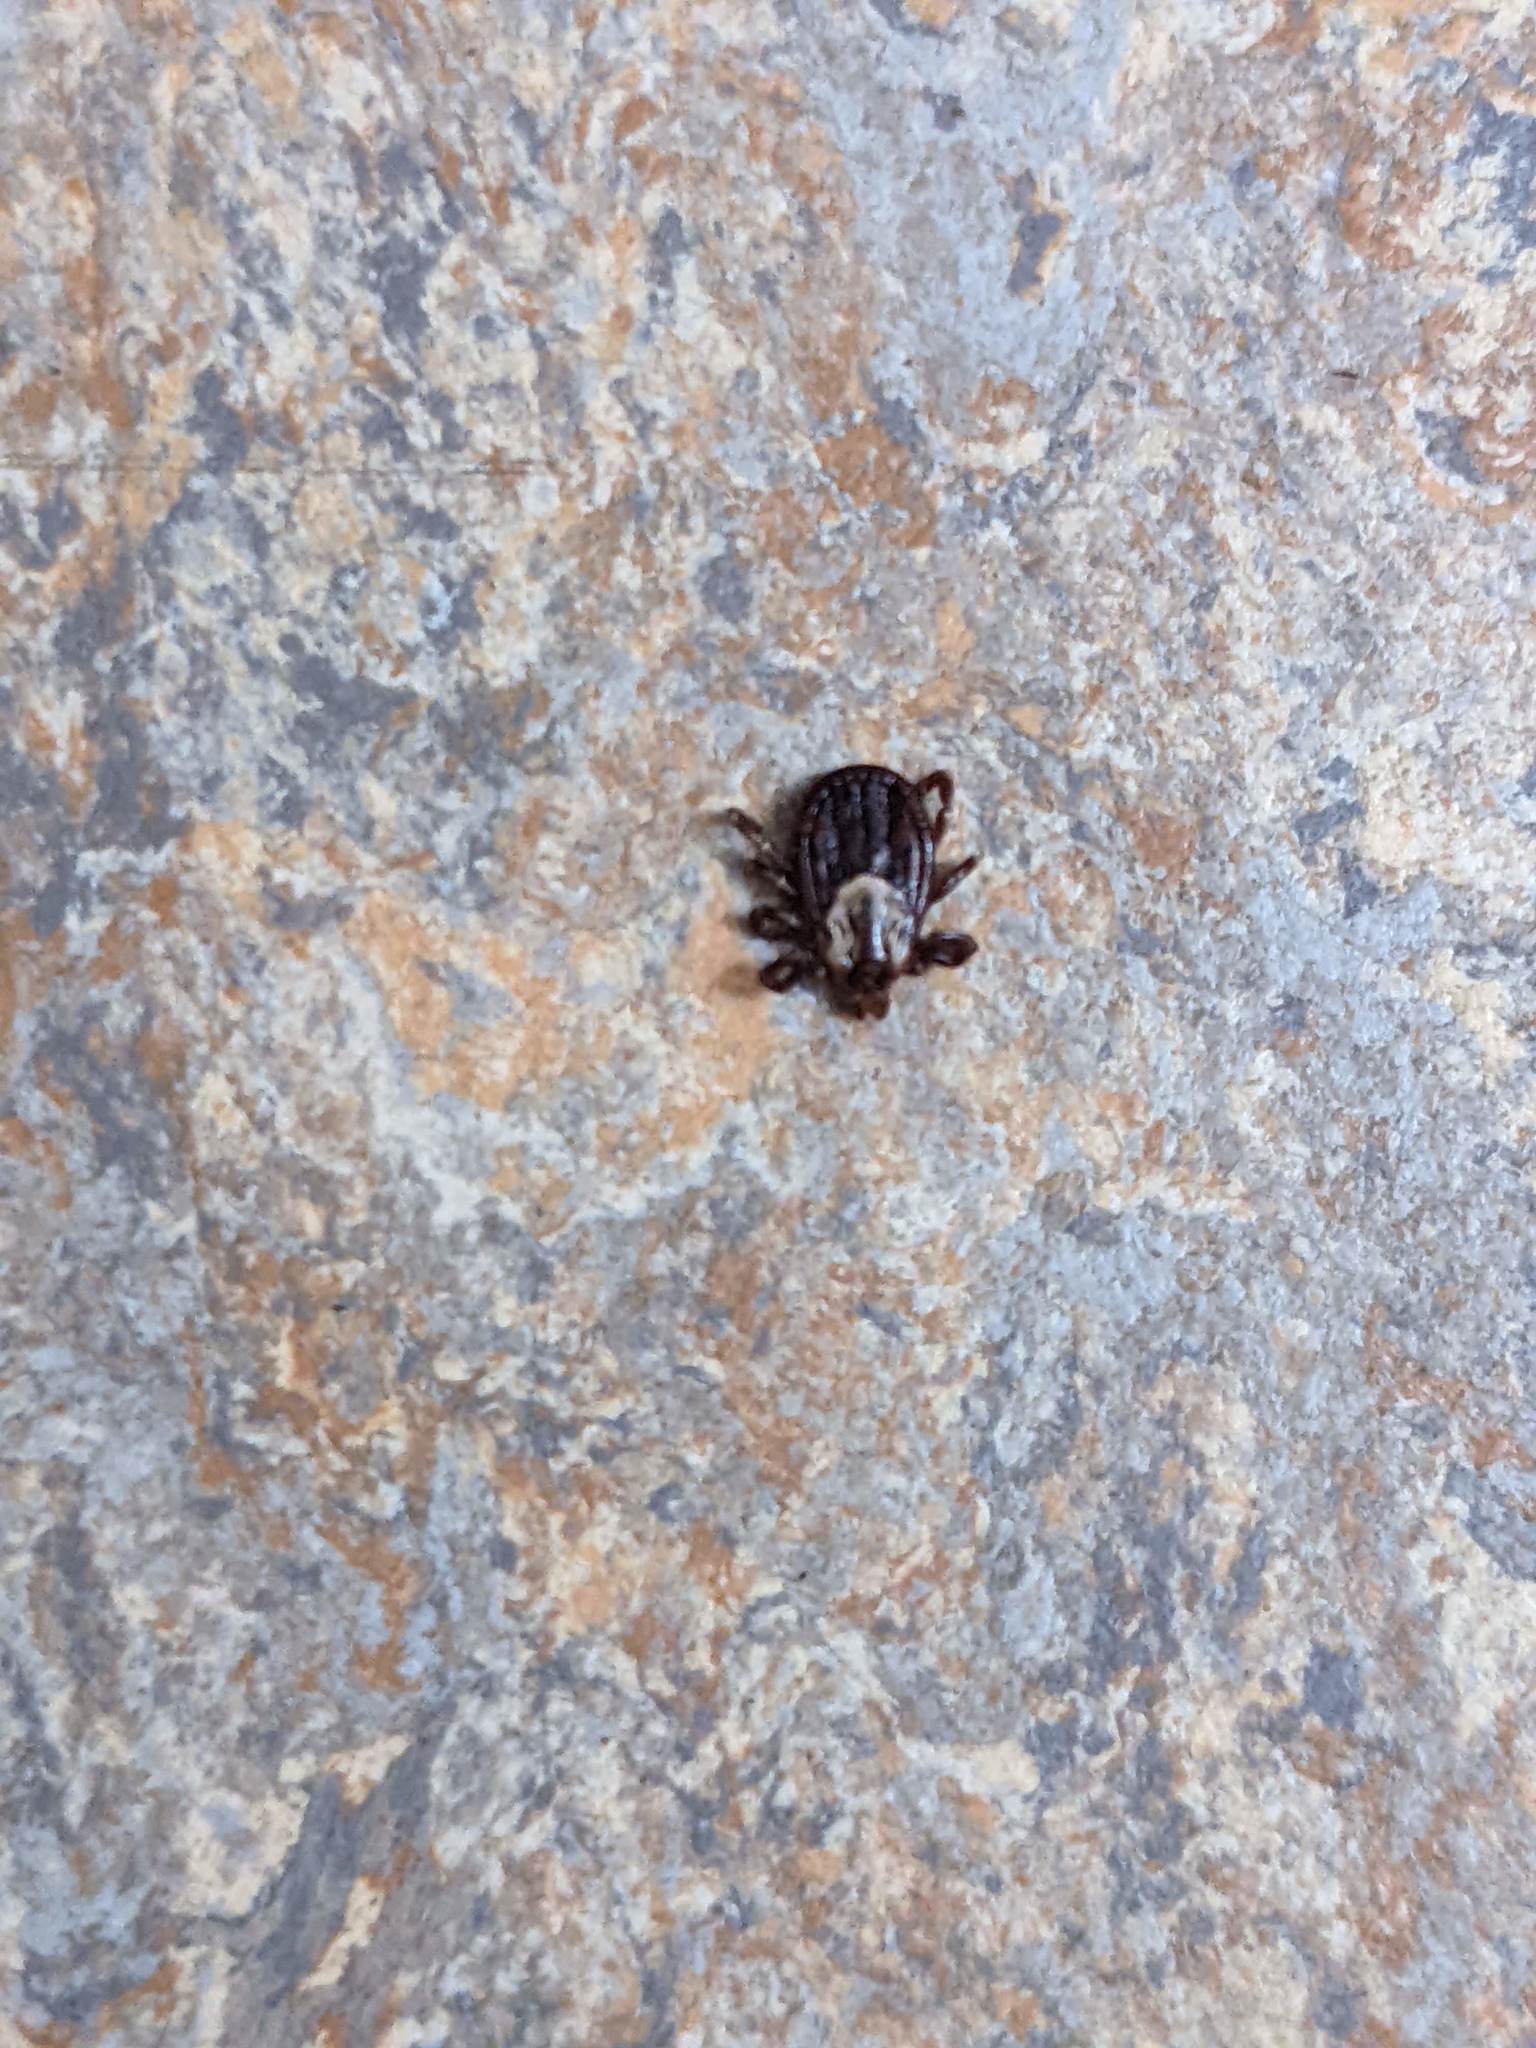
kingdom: Animalia
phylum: Arthropoda
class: Arachnida
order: Ixodida
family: Ixodidae
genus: Dermacentor
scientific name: Dermacentor variabilis
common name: American dog tick
